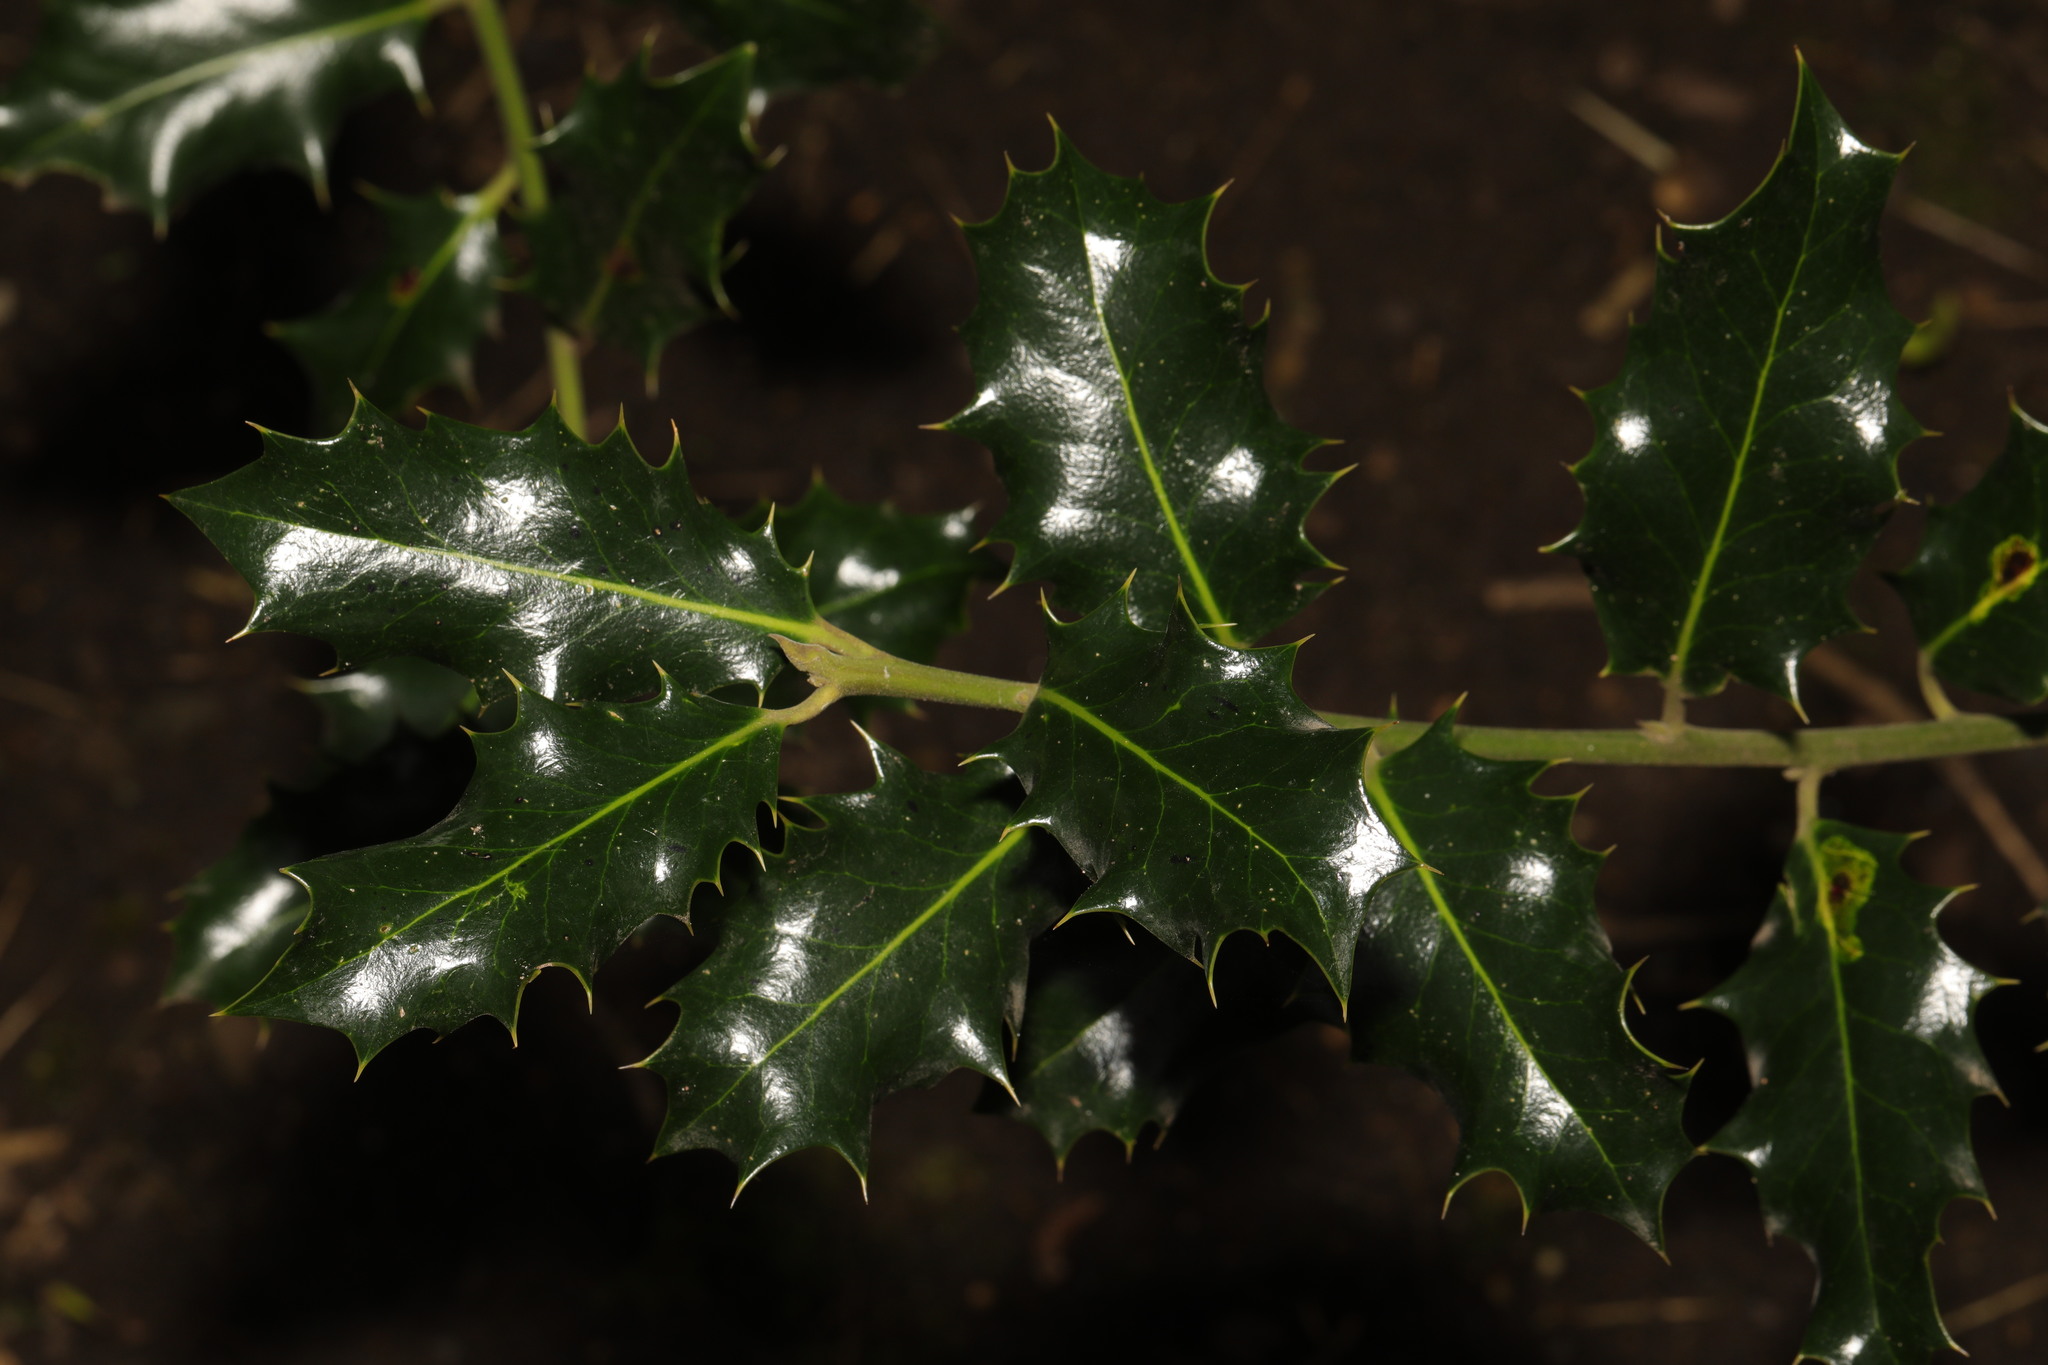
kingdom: Plantae
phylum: Tracheophyta
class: Magnoliopsida
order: Aquifoliales
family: Aquifoliaceae
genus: Ilex
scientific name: Ilex aquifolium
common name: English holly
